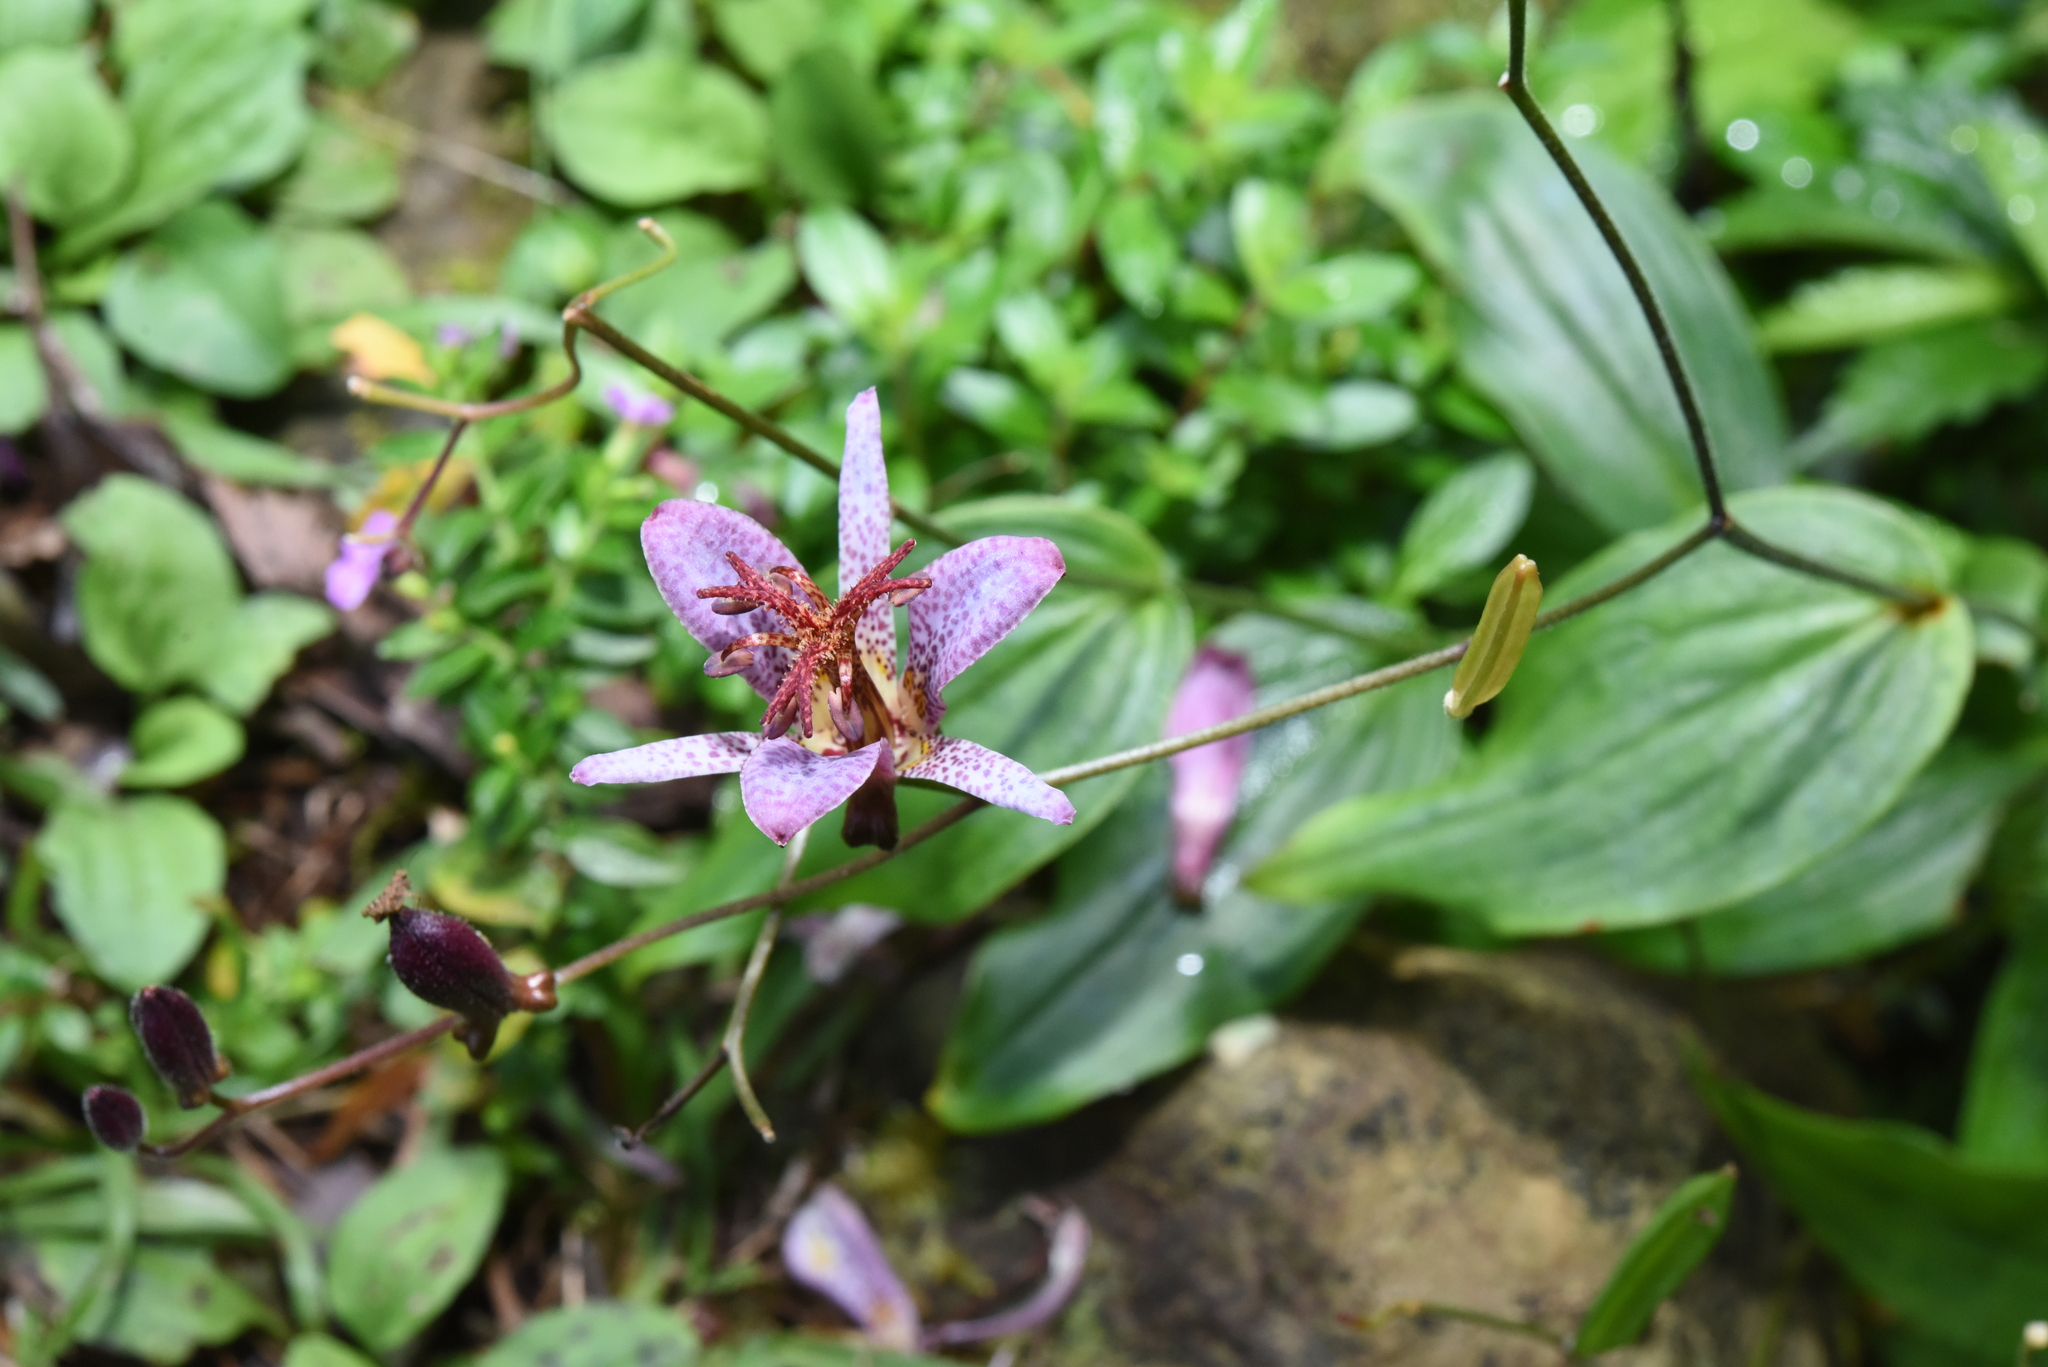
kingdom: Plantae
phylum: Tracheophyta
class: Liliopsida
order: Liliales
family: Liliaceae
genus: Tricyrtis
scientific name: Tricyrtis formosana
